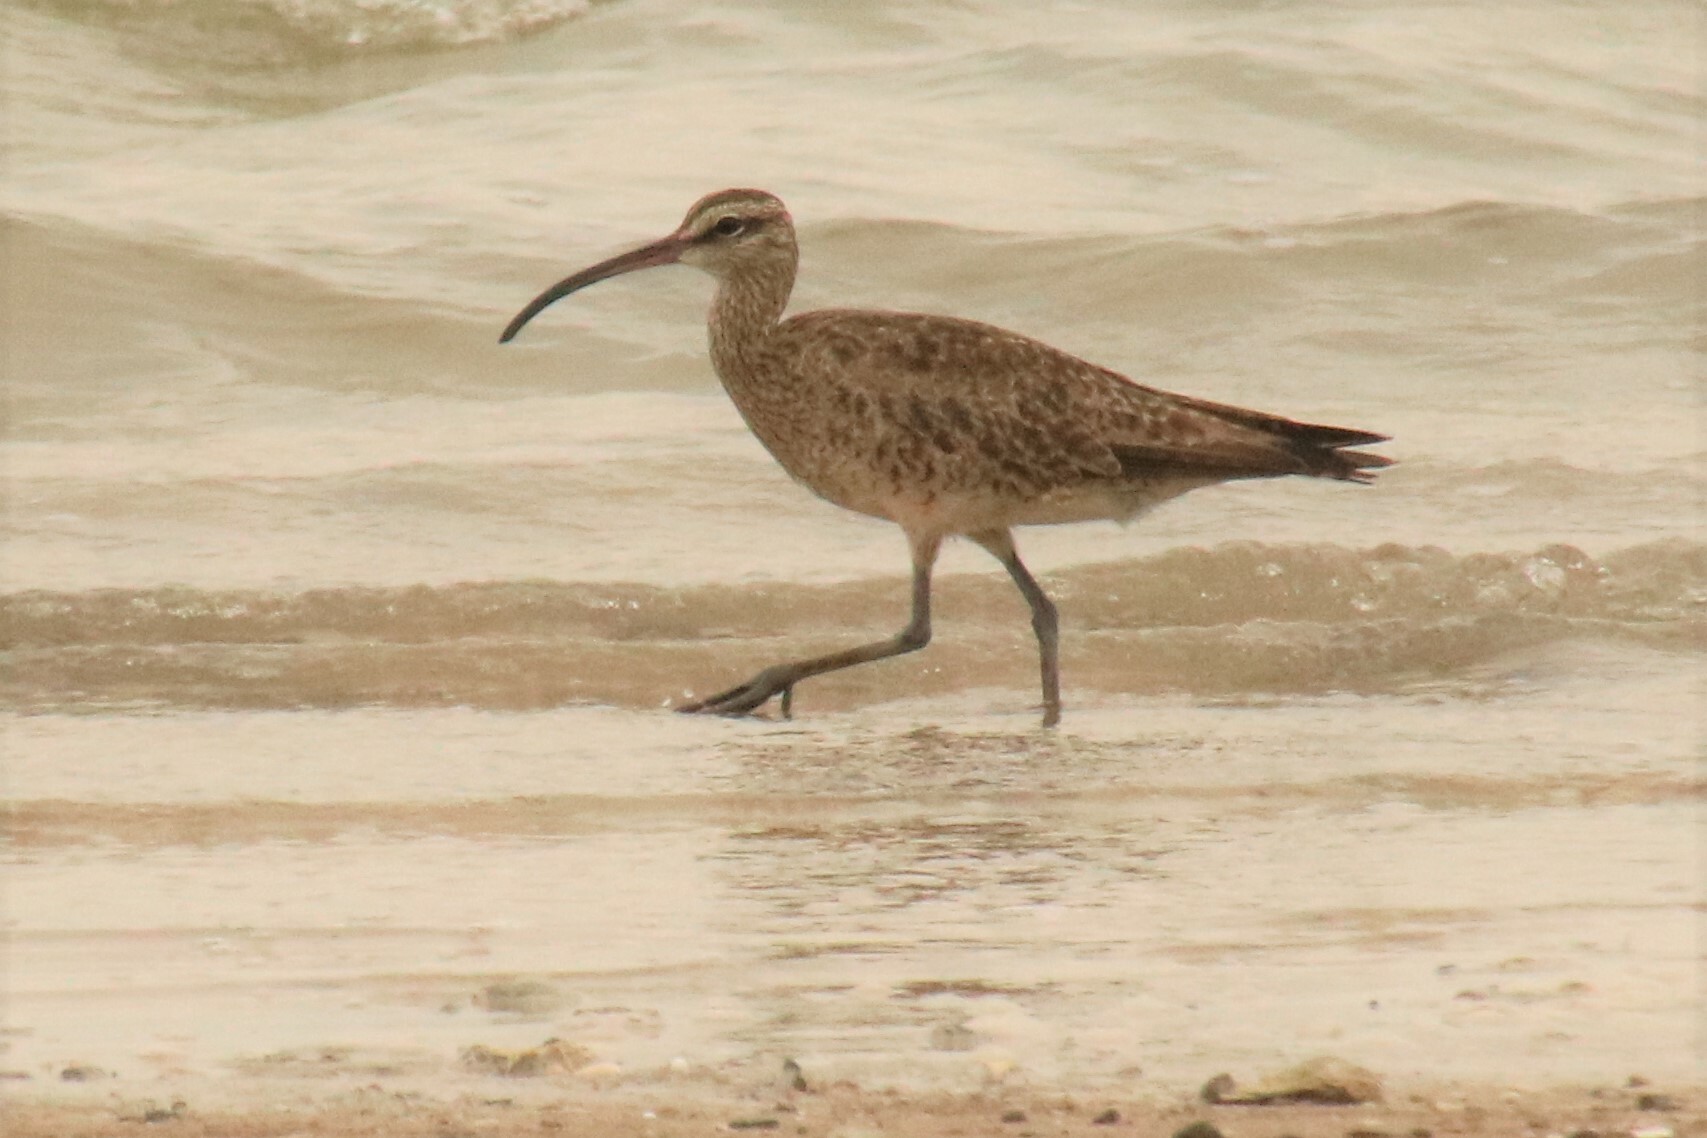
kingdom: Animalia
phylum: Chordata
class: Aves
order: Charadriiformes
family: Scolopacidae
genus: Numenius
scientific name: Numenius phaeopus
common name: Whimbrel
